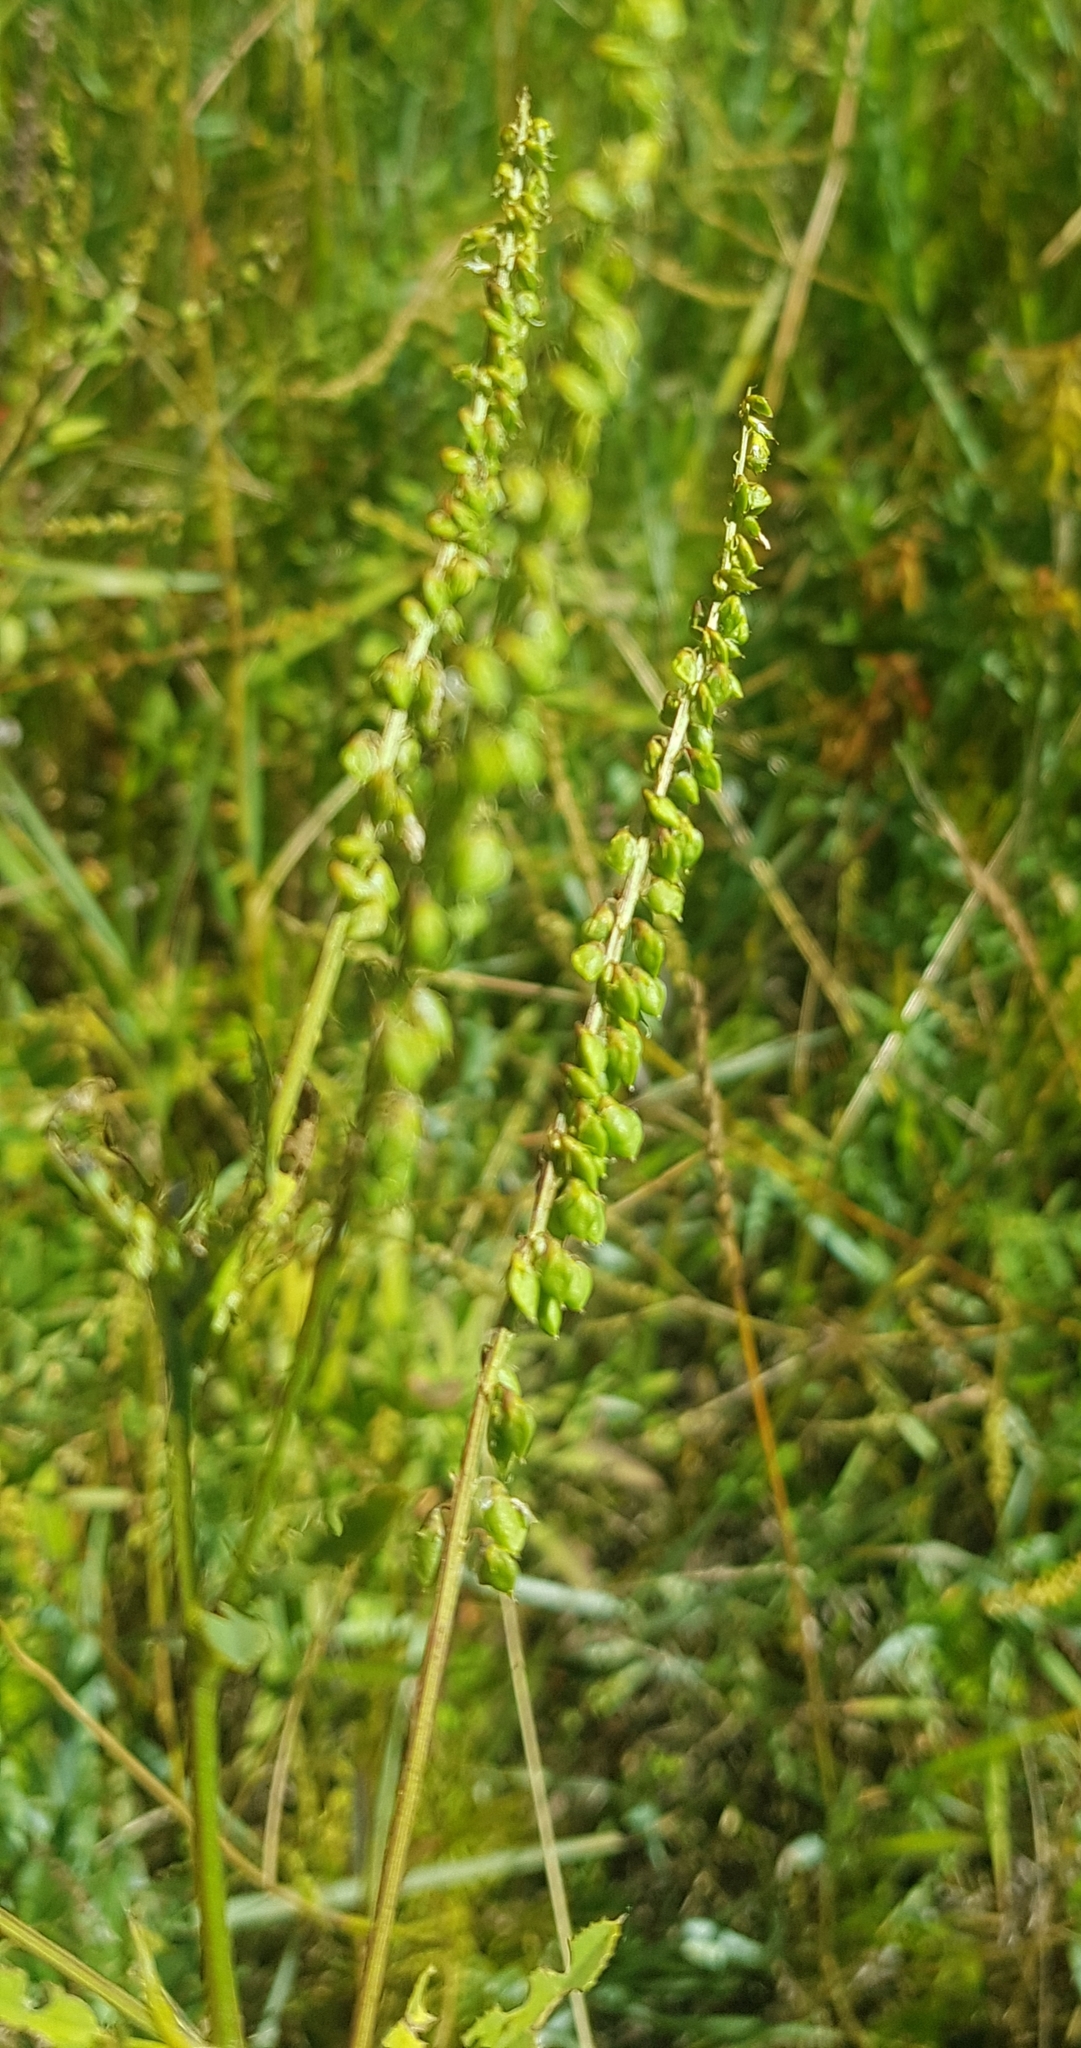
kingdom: Plantae
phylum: Tracheophyta
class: Magnoliopsida
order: Rosales
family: Rosaceae
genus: Agrimonia
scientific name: Agrimonia pilosa
